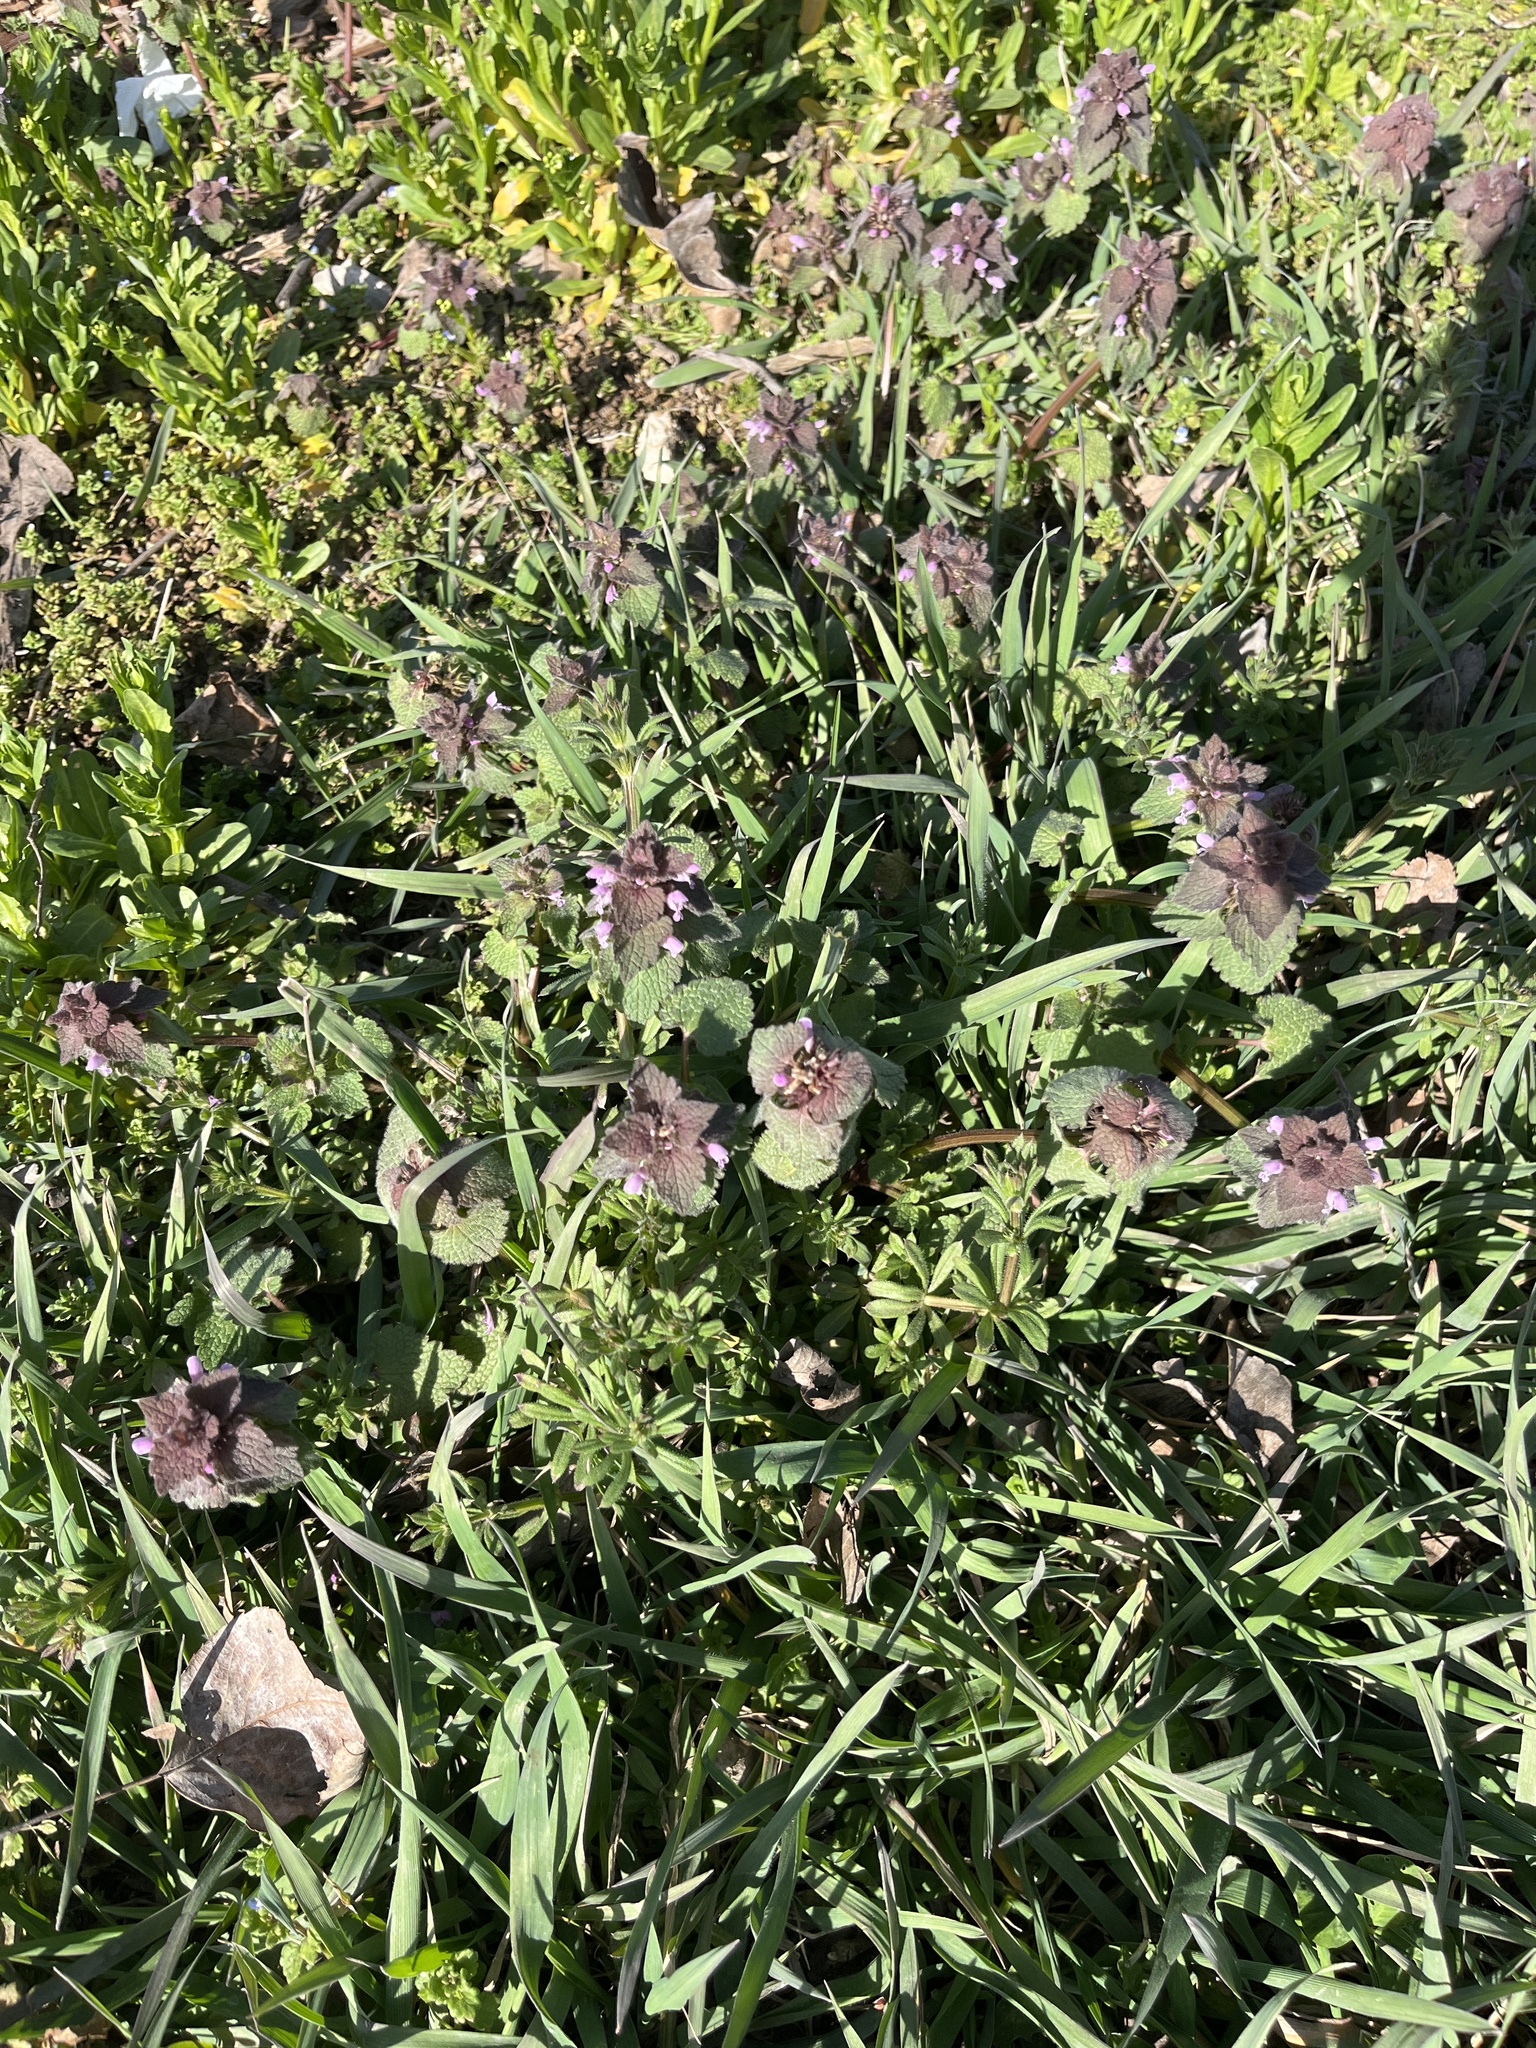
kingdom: Plantae
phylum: Tracheophyta
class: Magnoliopsida
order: Lamiales
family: Lamiaceae
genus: Lamium
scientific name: Lamium purpureum
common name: Red dead-nettle
